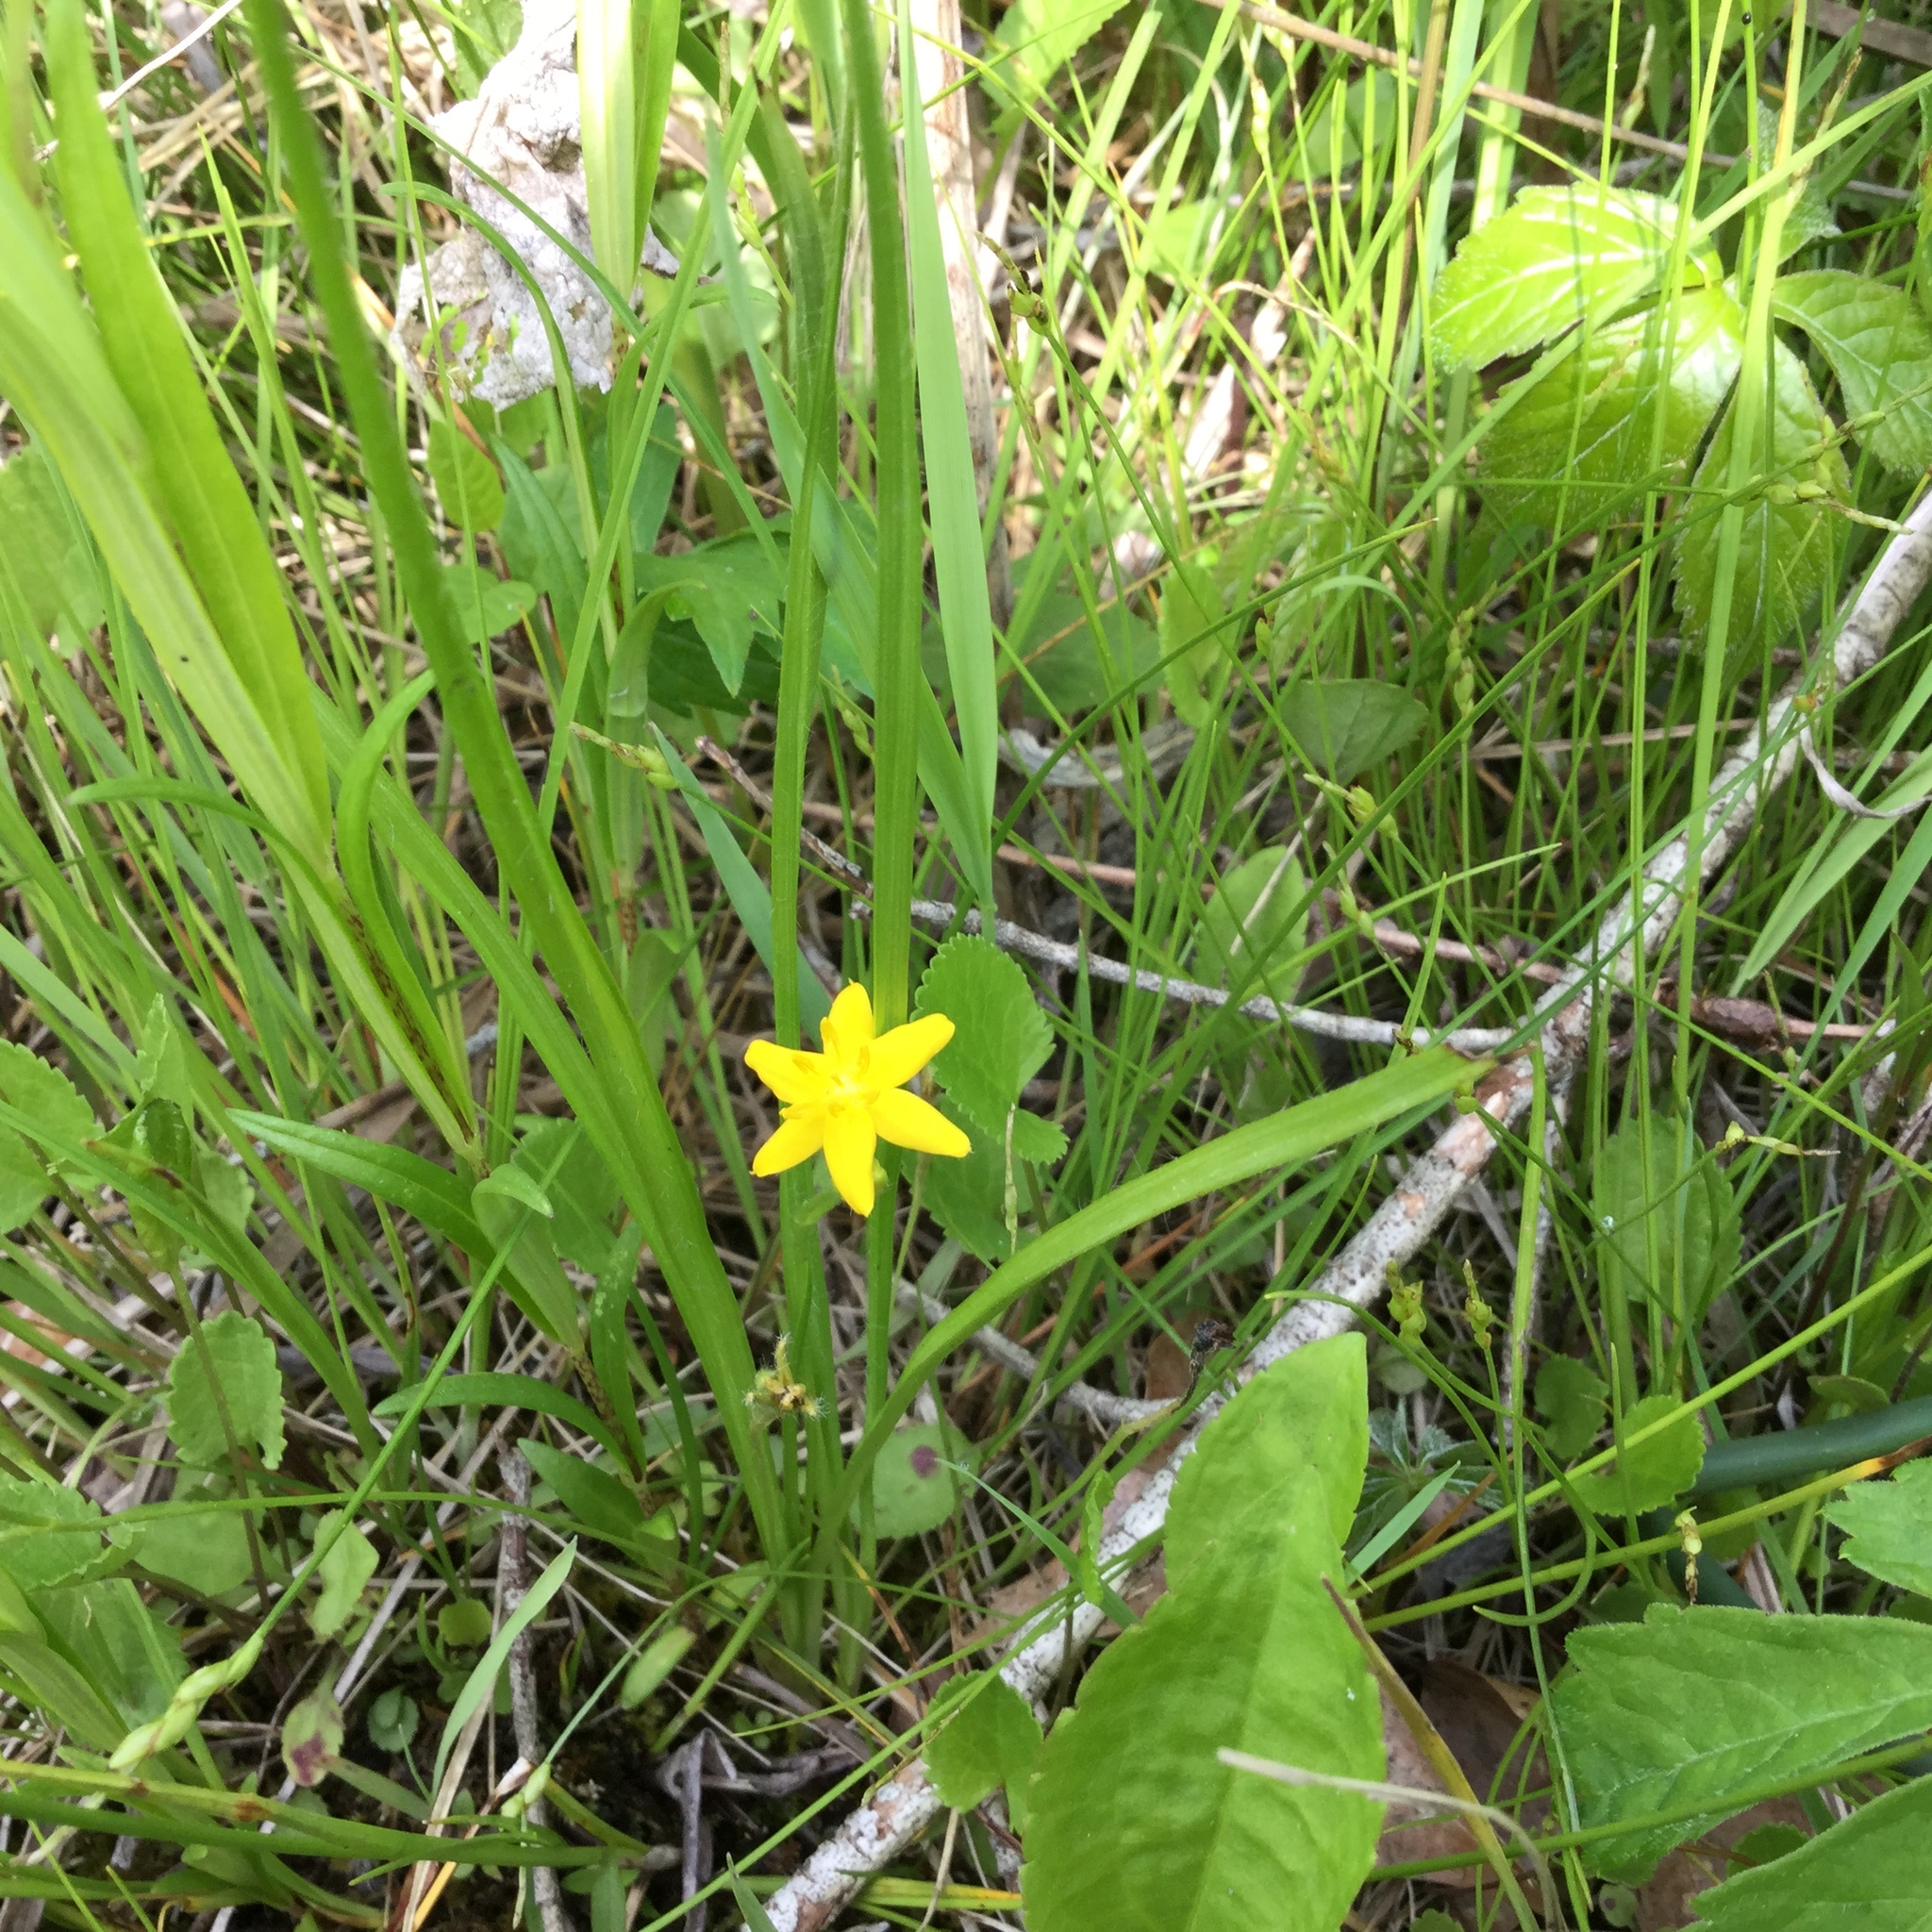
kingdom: Plantae
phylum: Tracheophyta
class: Liliopsida
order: Asparagales
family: Hypoxidaceae
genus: Hypoxis
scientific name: Hypoxis hirsuta
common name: Common goldstar
